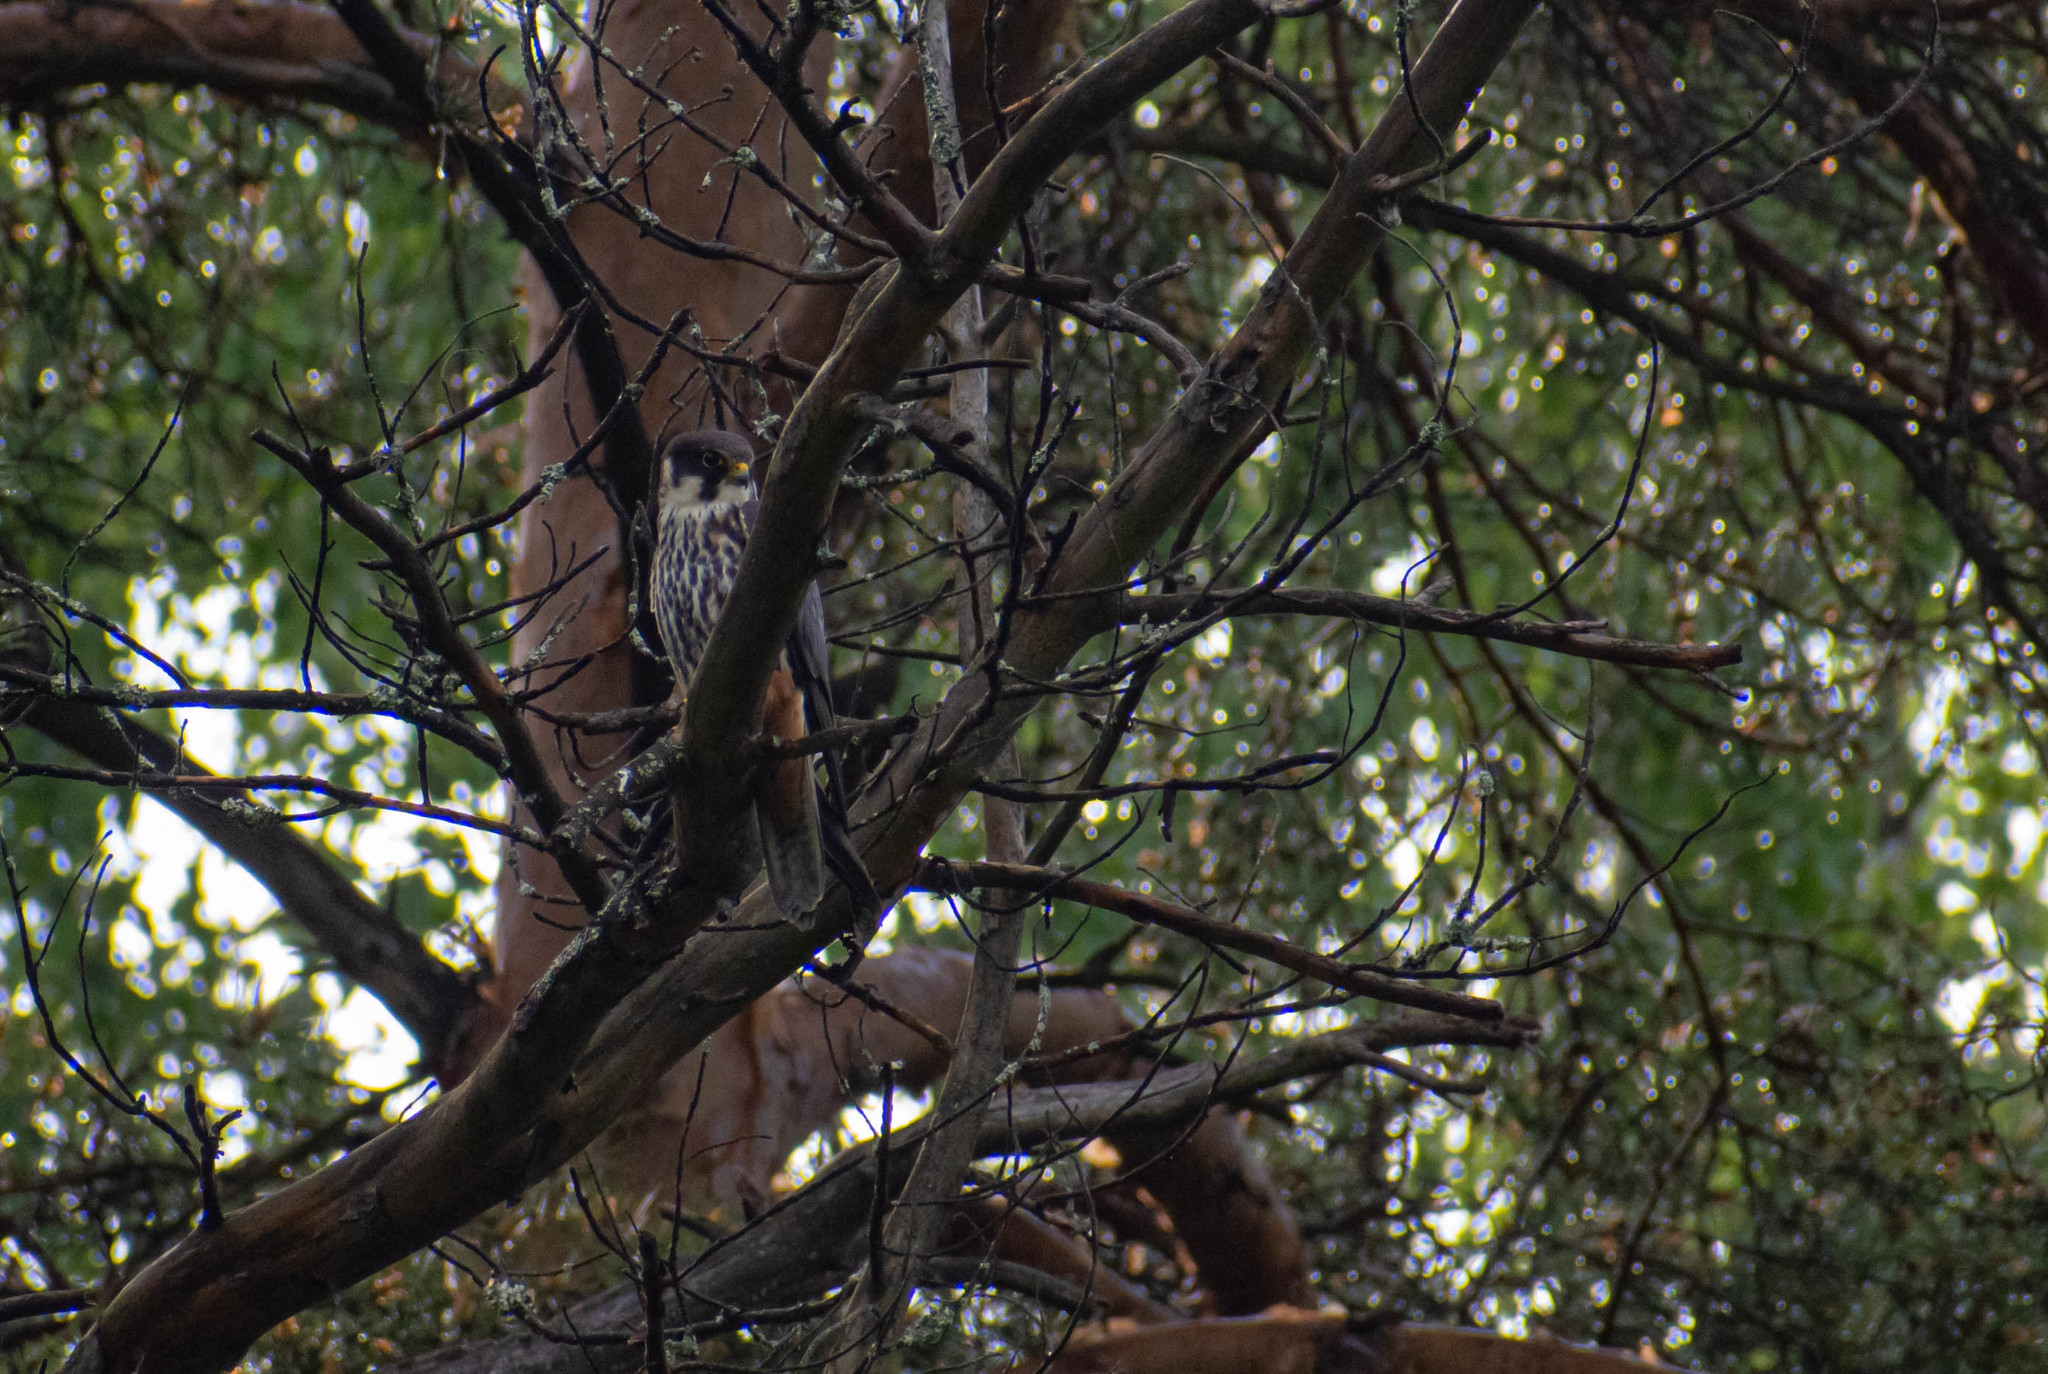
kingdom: Animalia
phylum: Chordata
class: Aves
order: Falconiformes
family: Falconidae
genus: Falco
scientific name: Falco subbuteo
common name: Eurasian hobby
